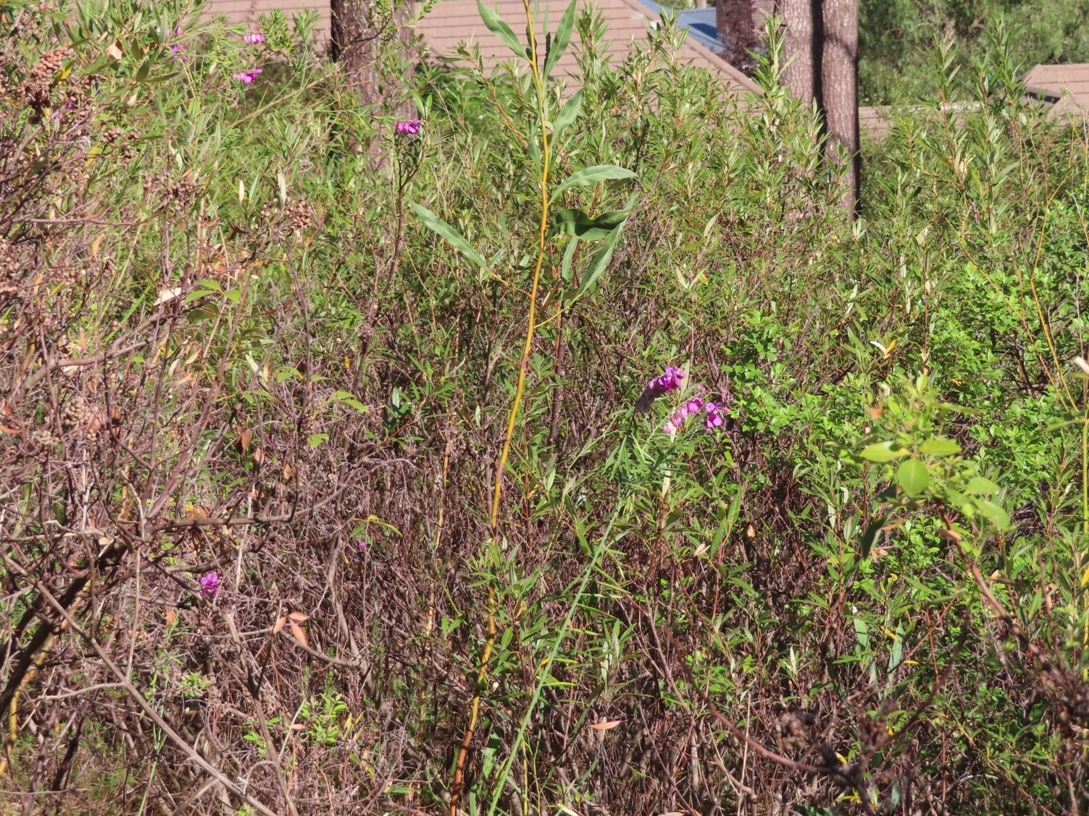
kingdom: Plantae
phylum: Tracheophyta
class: Magnoliopsida
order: Fabales
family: Polygalaceae
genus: Polygala
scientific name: Polygala virgata
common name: Milkwort
